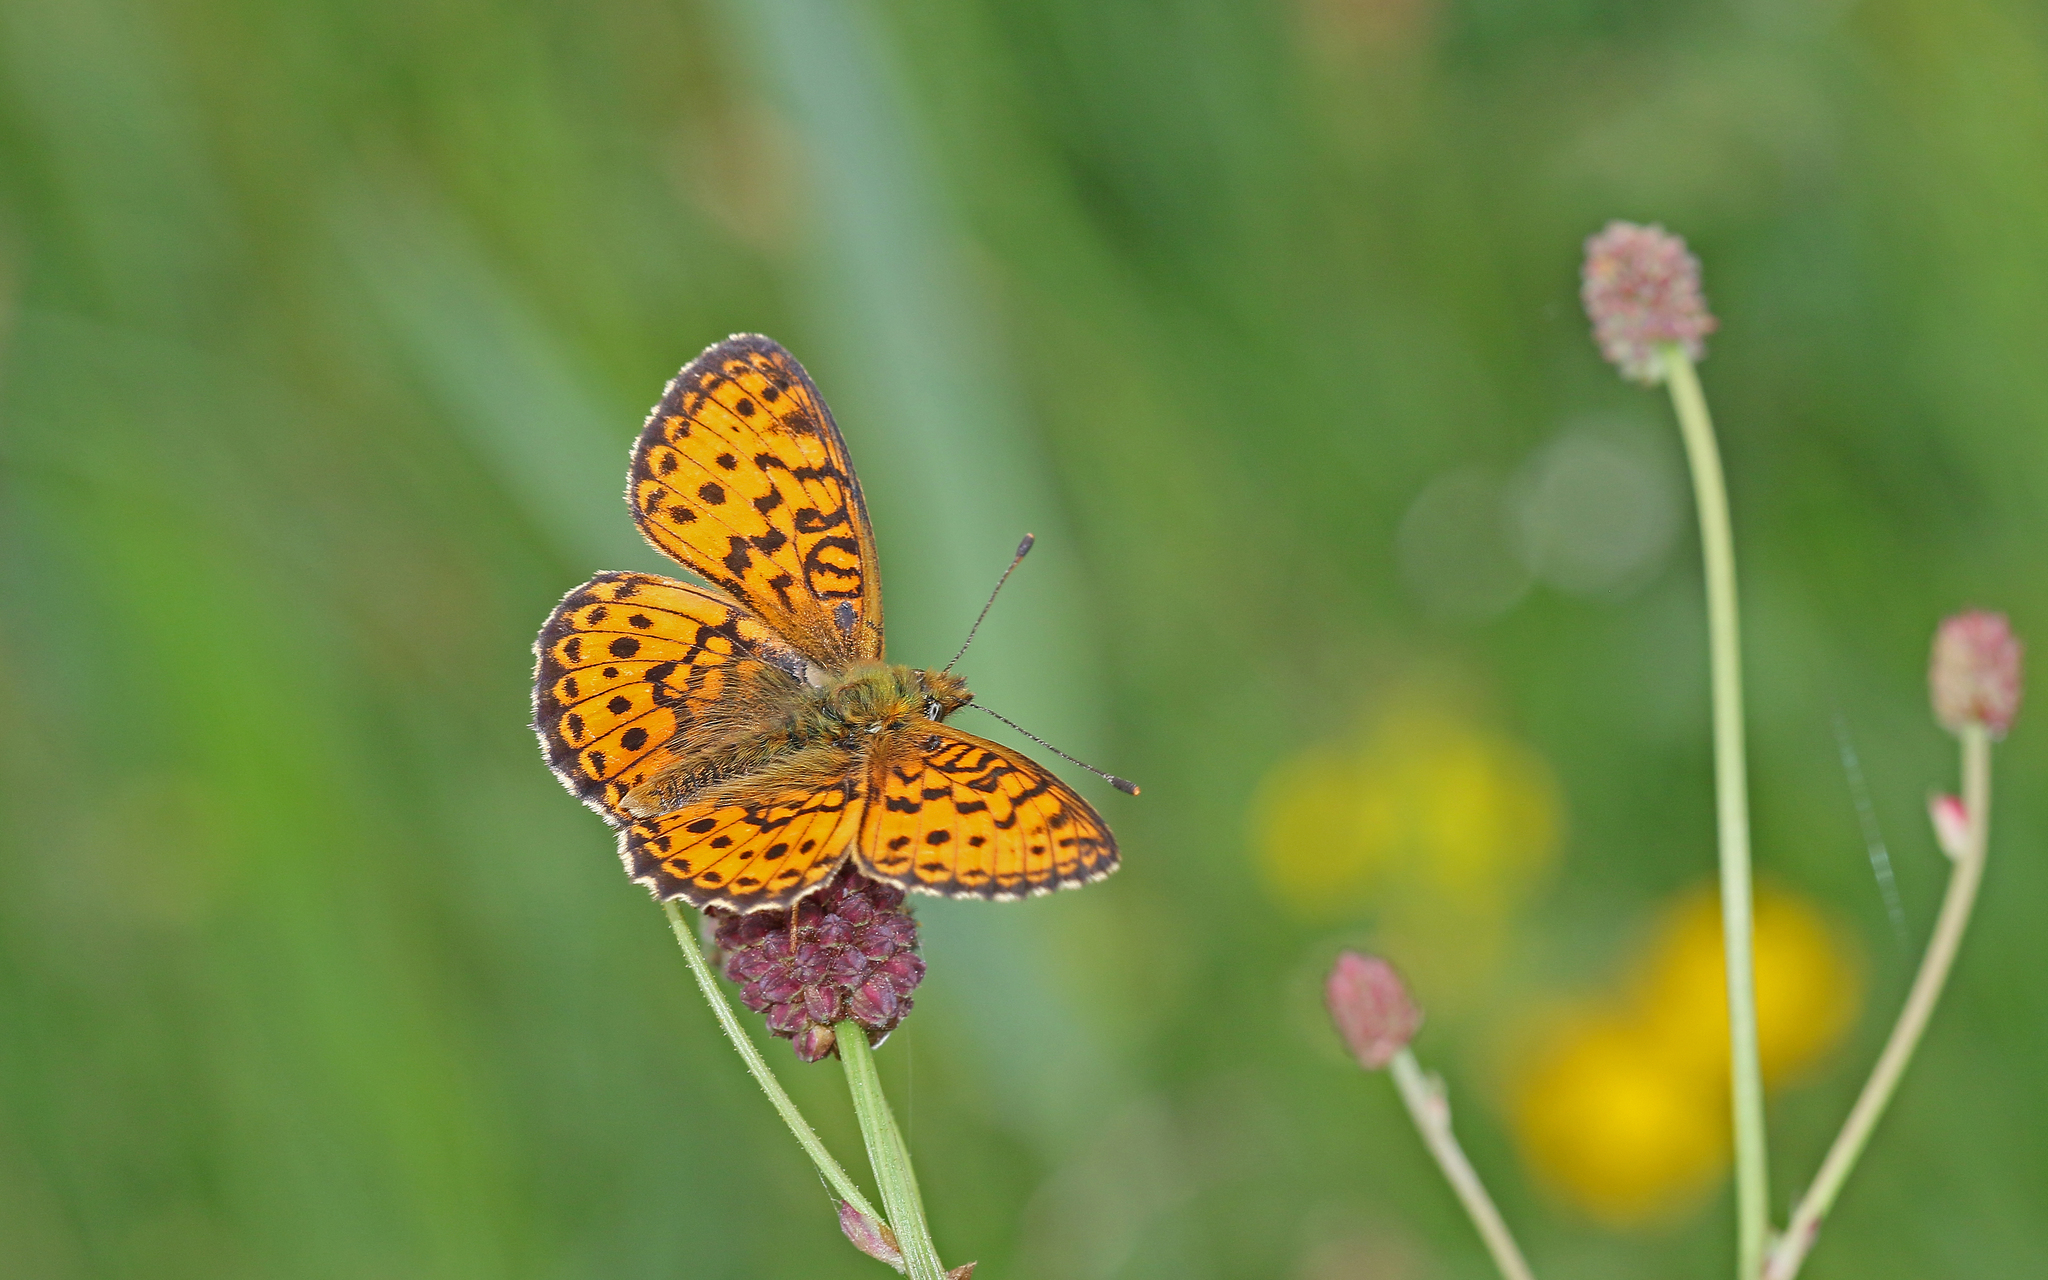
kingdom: Animalia
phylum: Arthropoda
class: Insecta
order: Lepidoptera
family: Nymphalidae
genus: Brenthis
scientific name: Brenthis ino
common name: Lesser marbled fritillary
